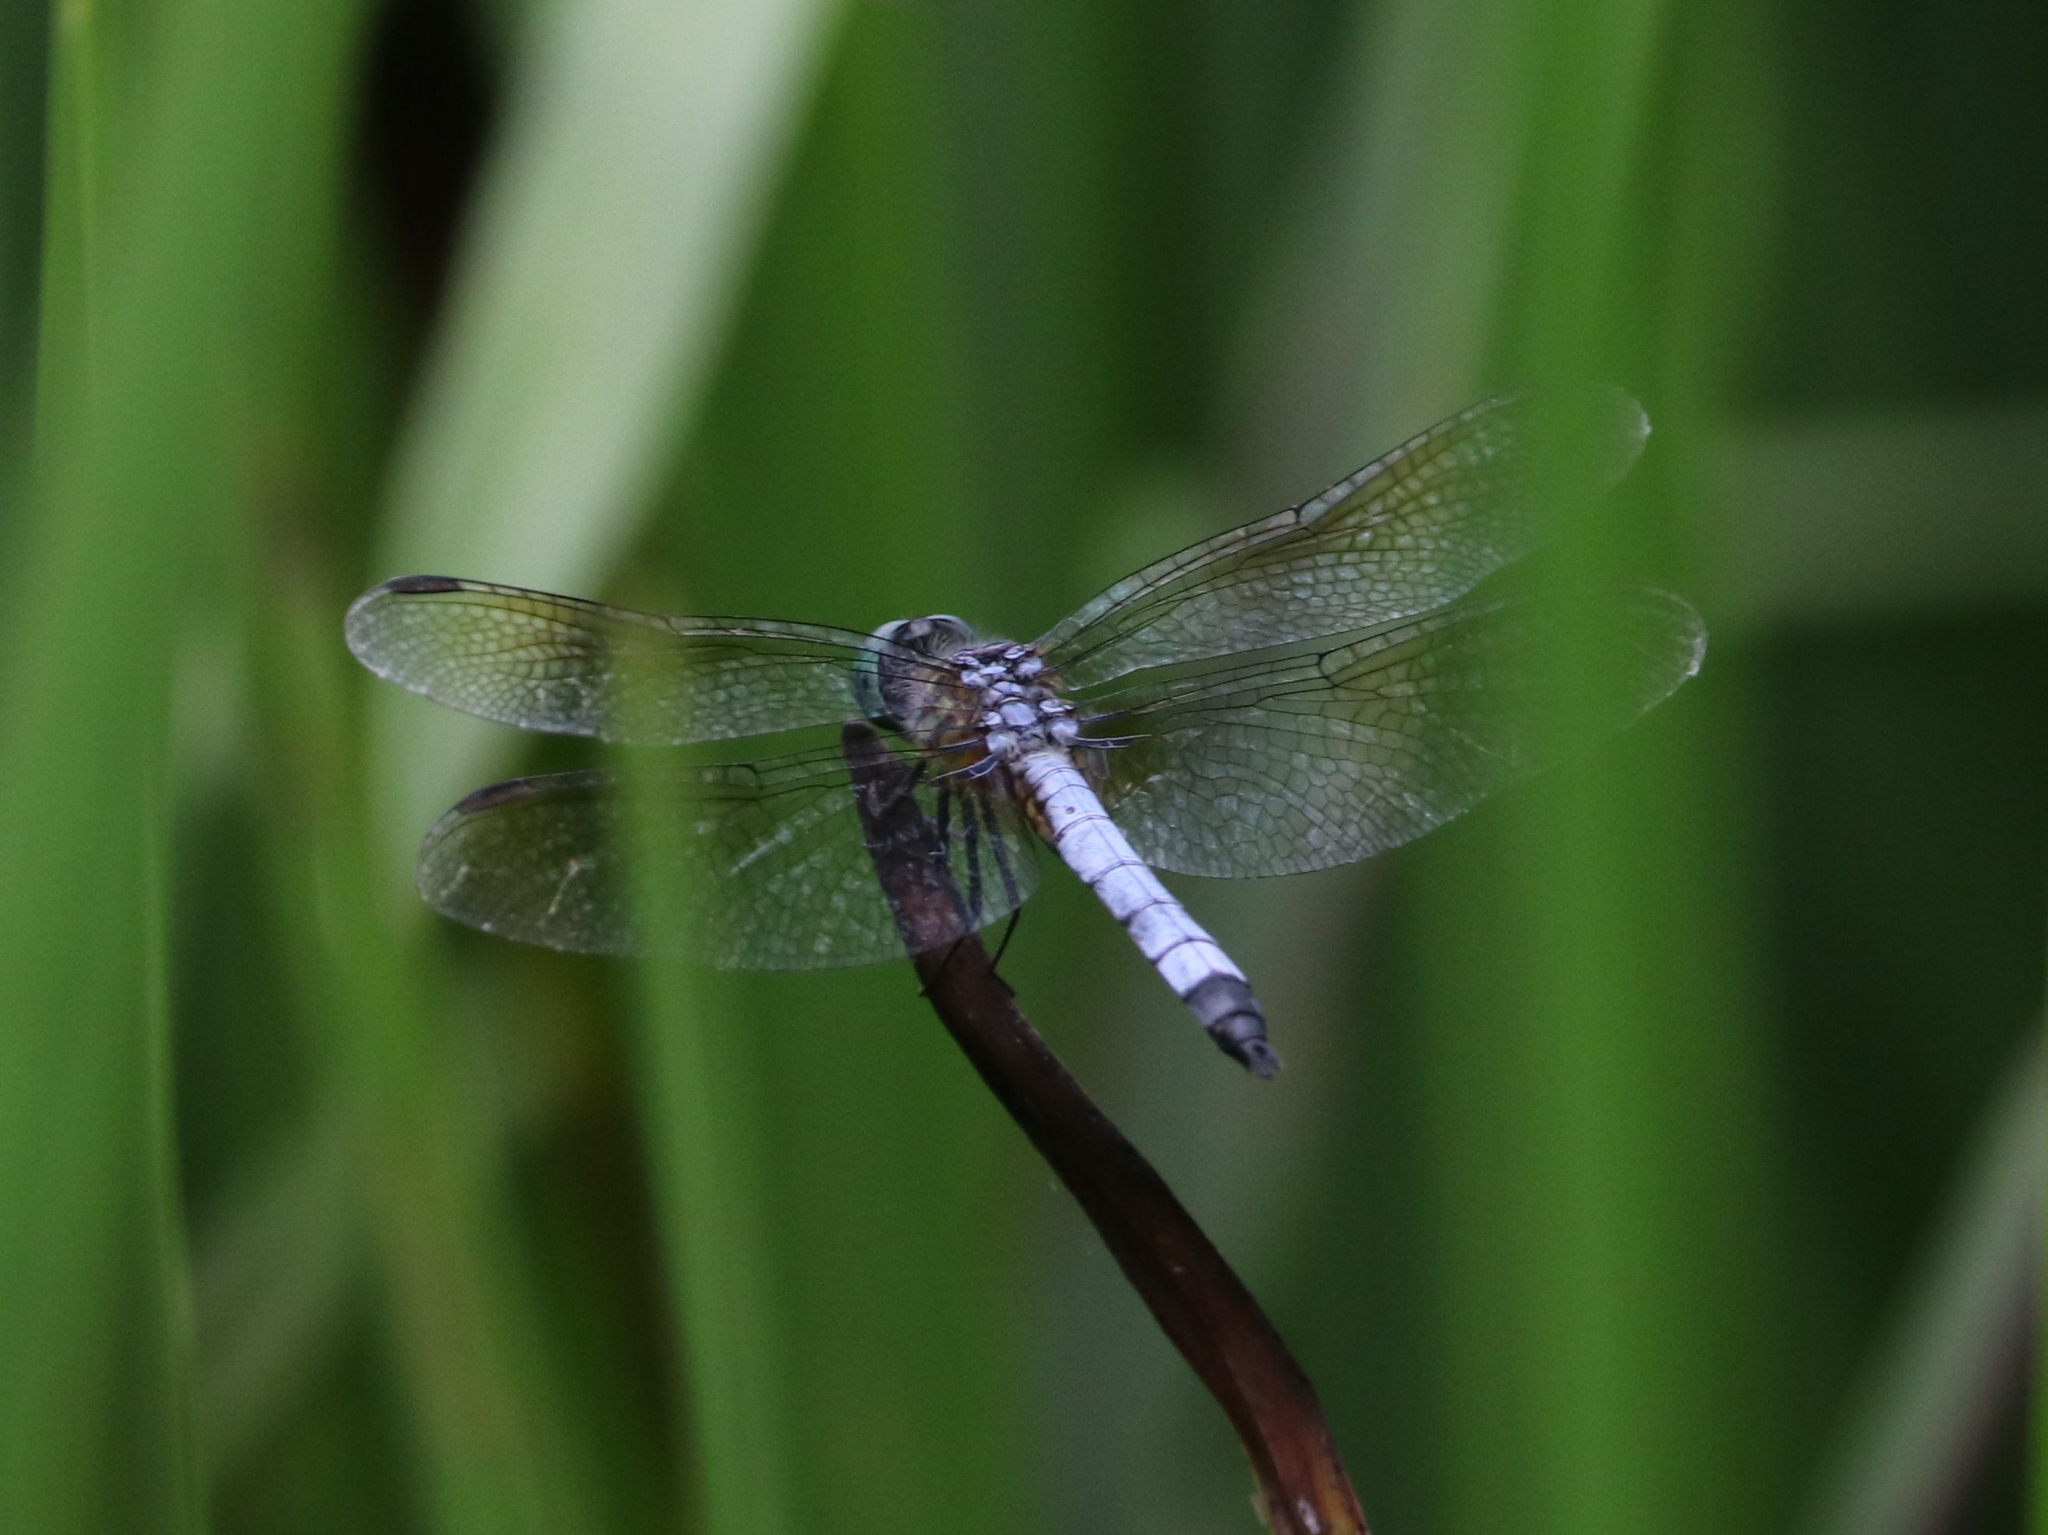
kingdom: Animalia
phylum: Arthropoda
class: Insecta
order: Odonata
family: Libellulidae
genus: Pachydiplax
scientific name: Pachydiplax longipennis
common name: Blue dasher
